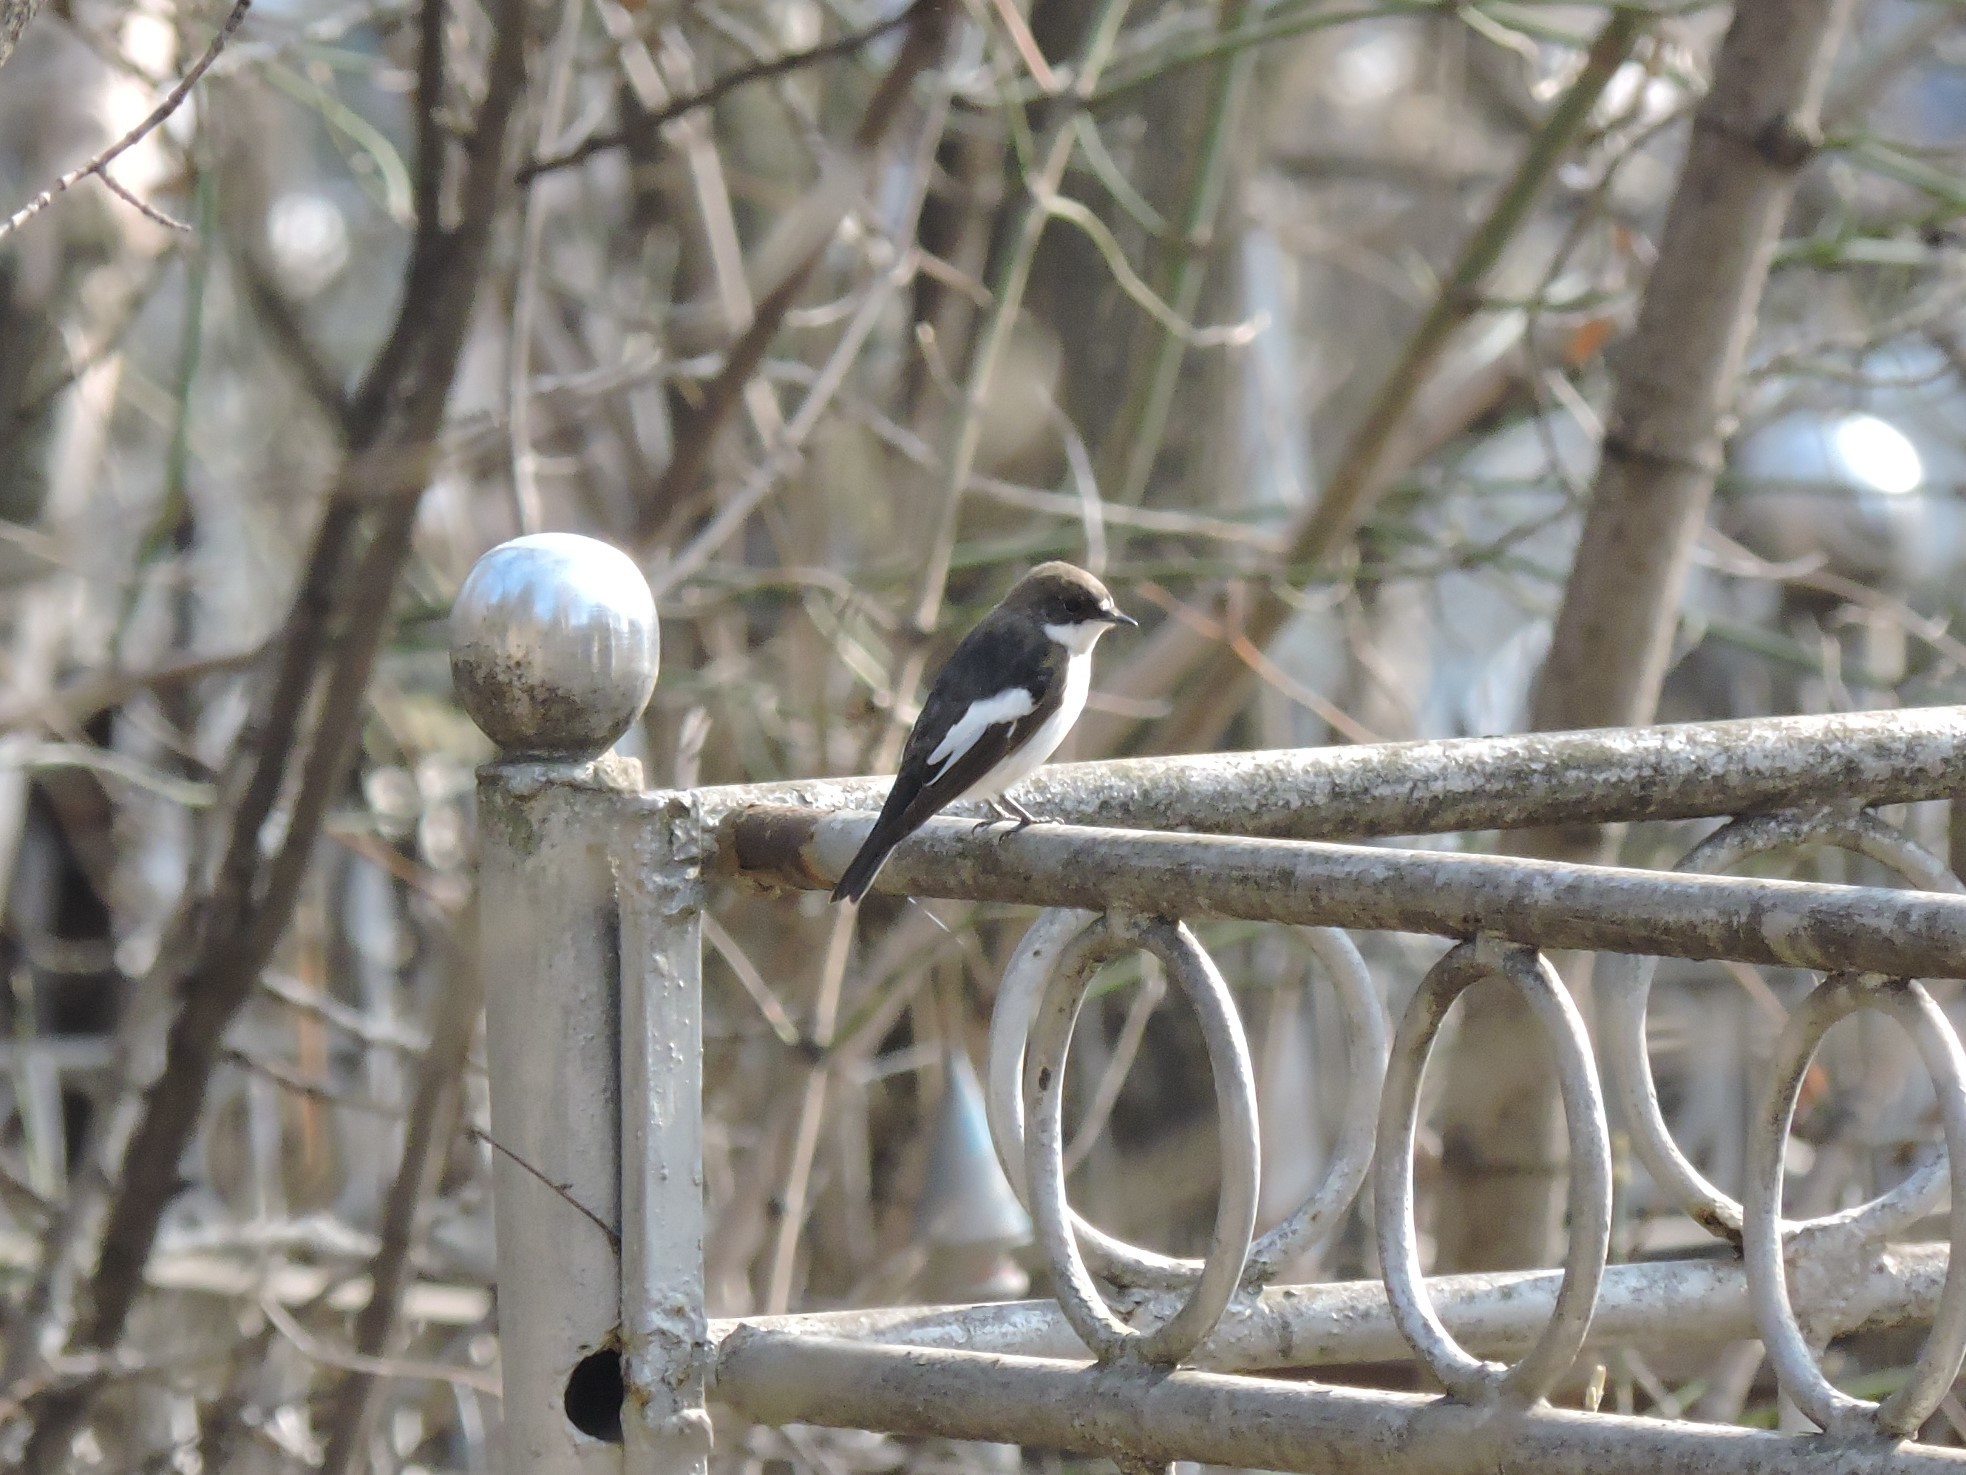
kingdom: Animalia
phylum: Chordata
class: Aves
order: Passeriformes
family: Muscicapidae
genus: Ficedula
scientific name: Ficedula hypoleuca
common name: European pied flycatcher
